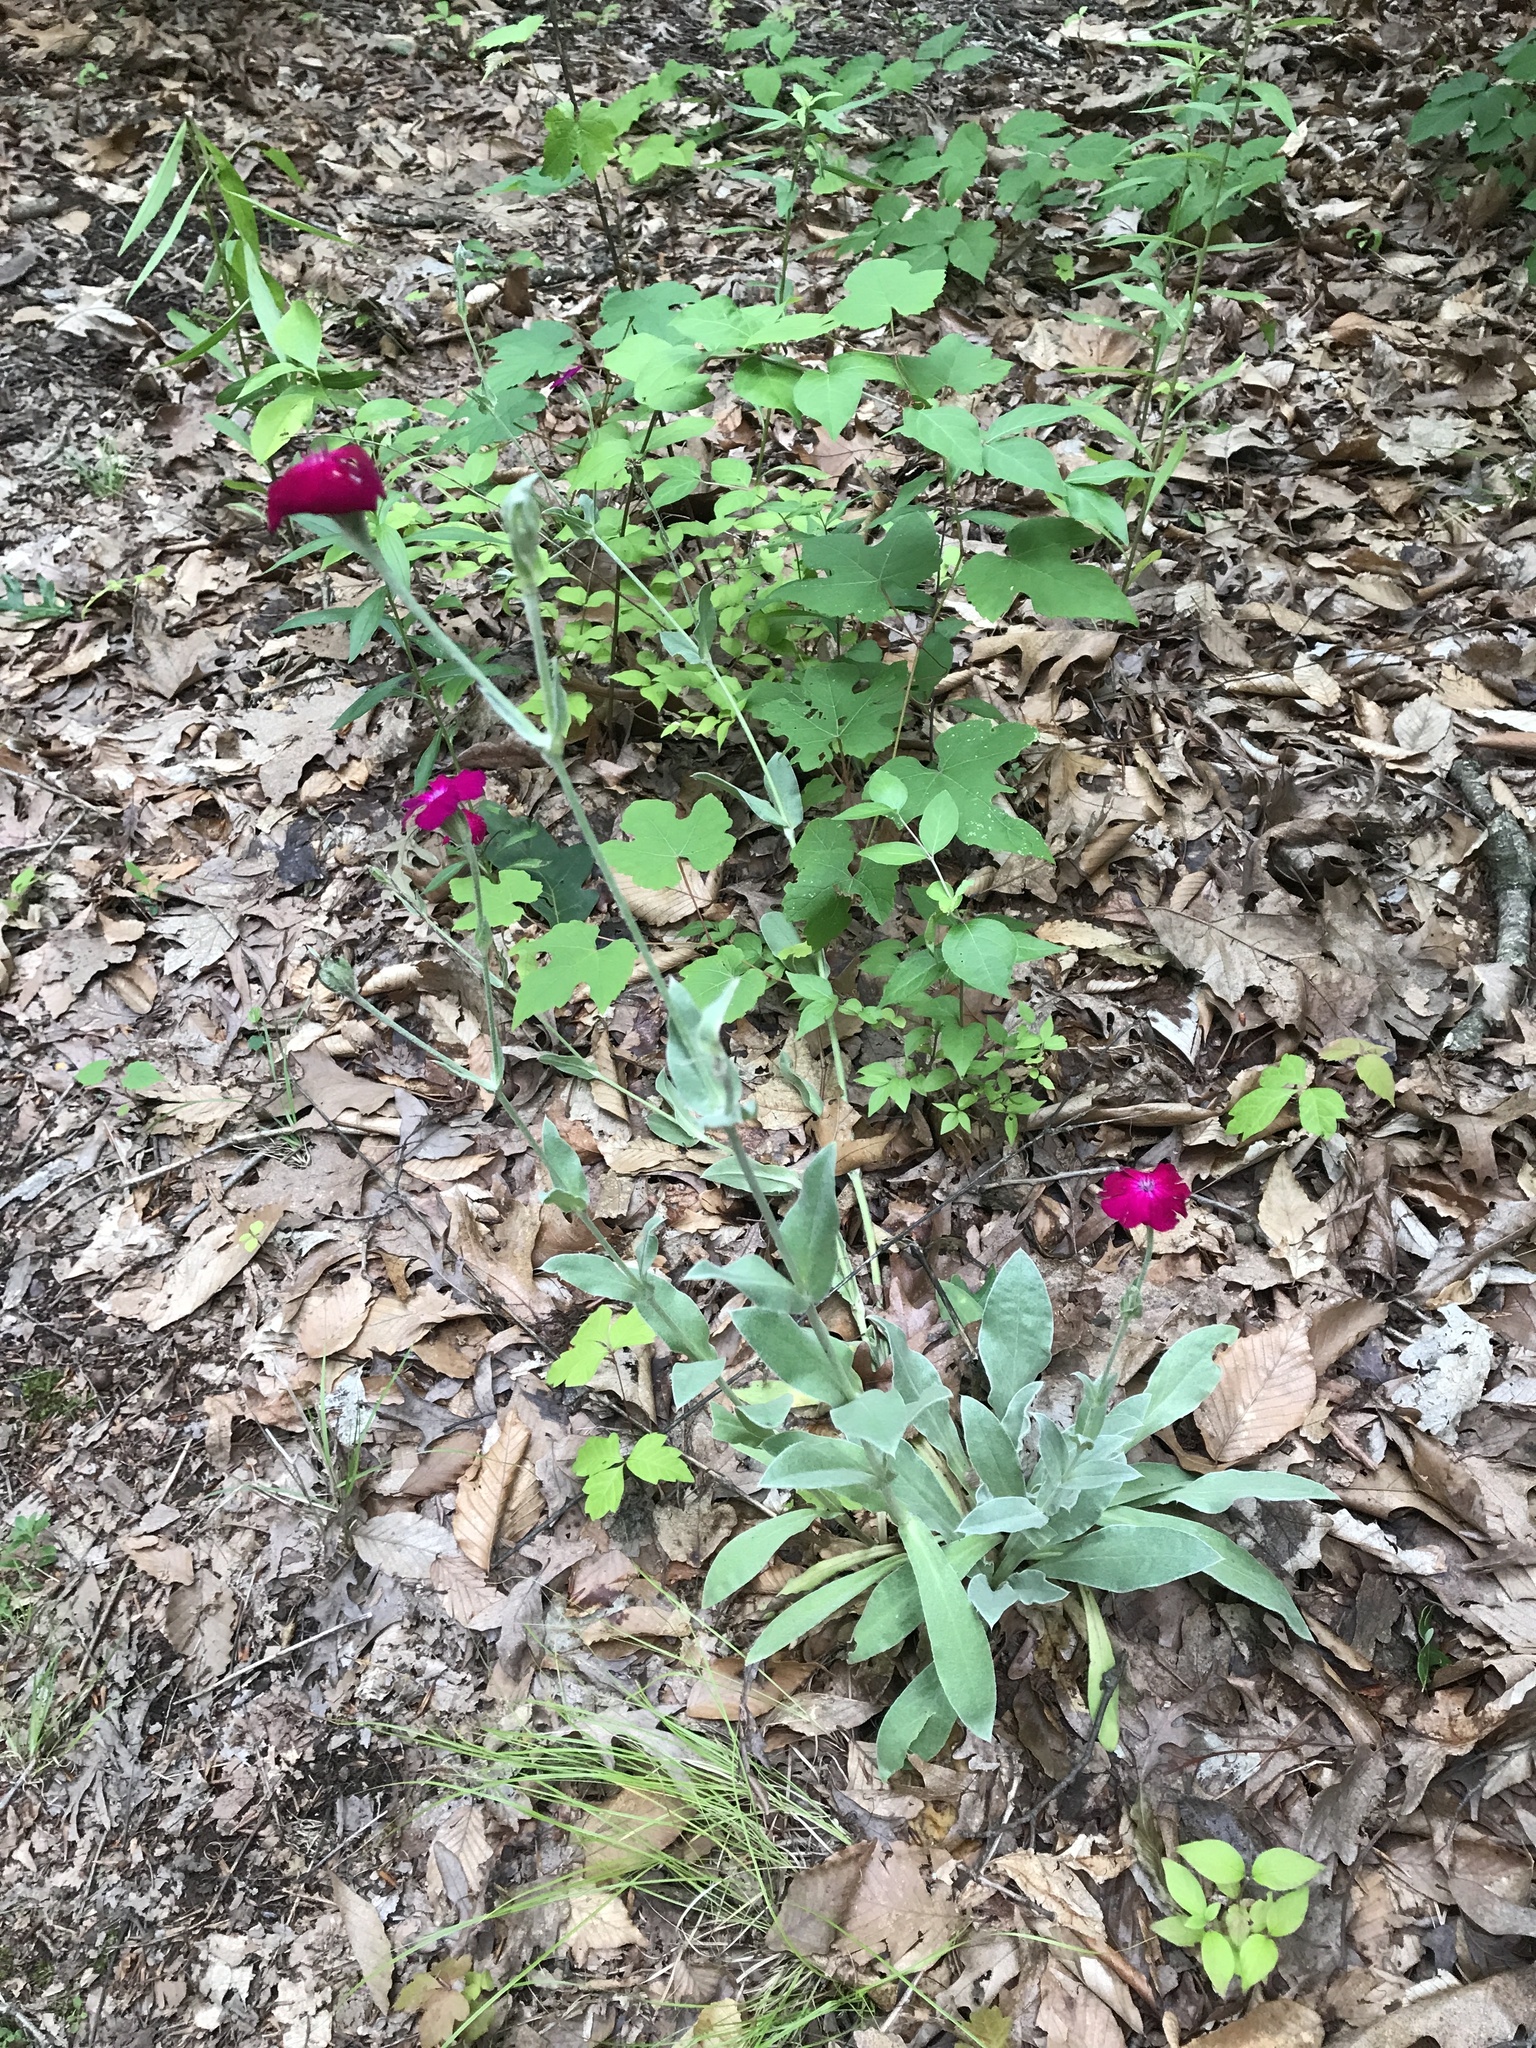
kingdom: Plantae
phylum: Tracheophyta
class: Magnoliopsida
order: Caryophyllales
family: Caryophyllaceae
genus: Silene
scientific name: Silene coronaria
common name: Rose campion
